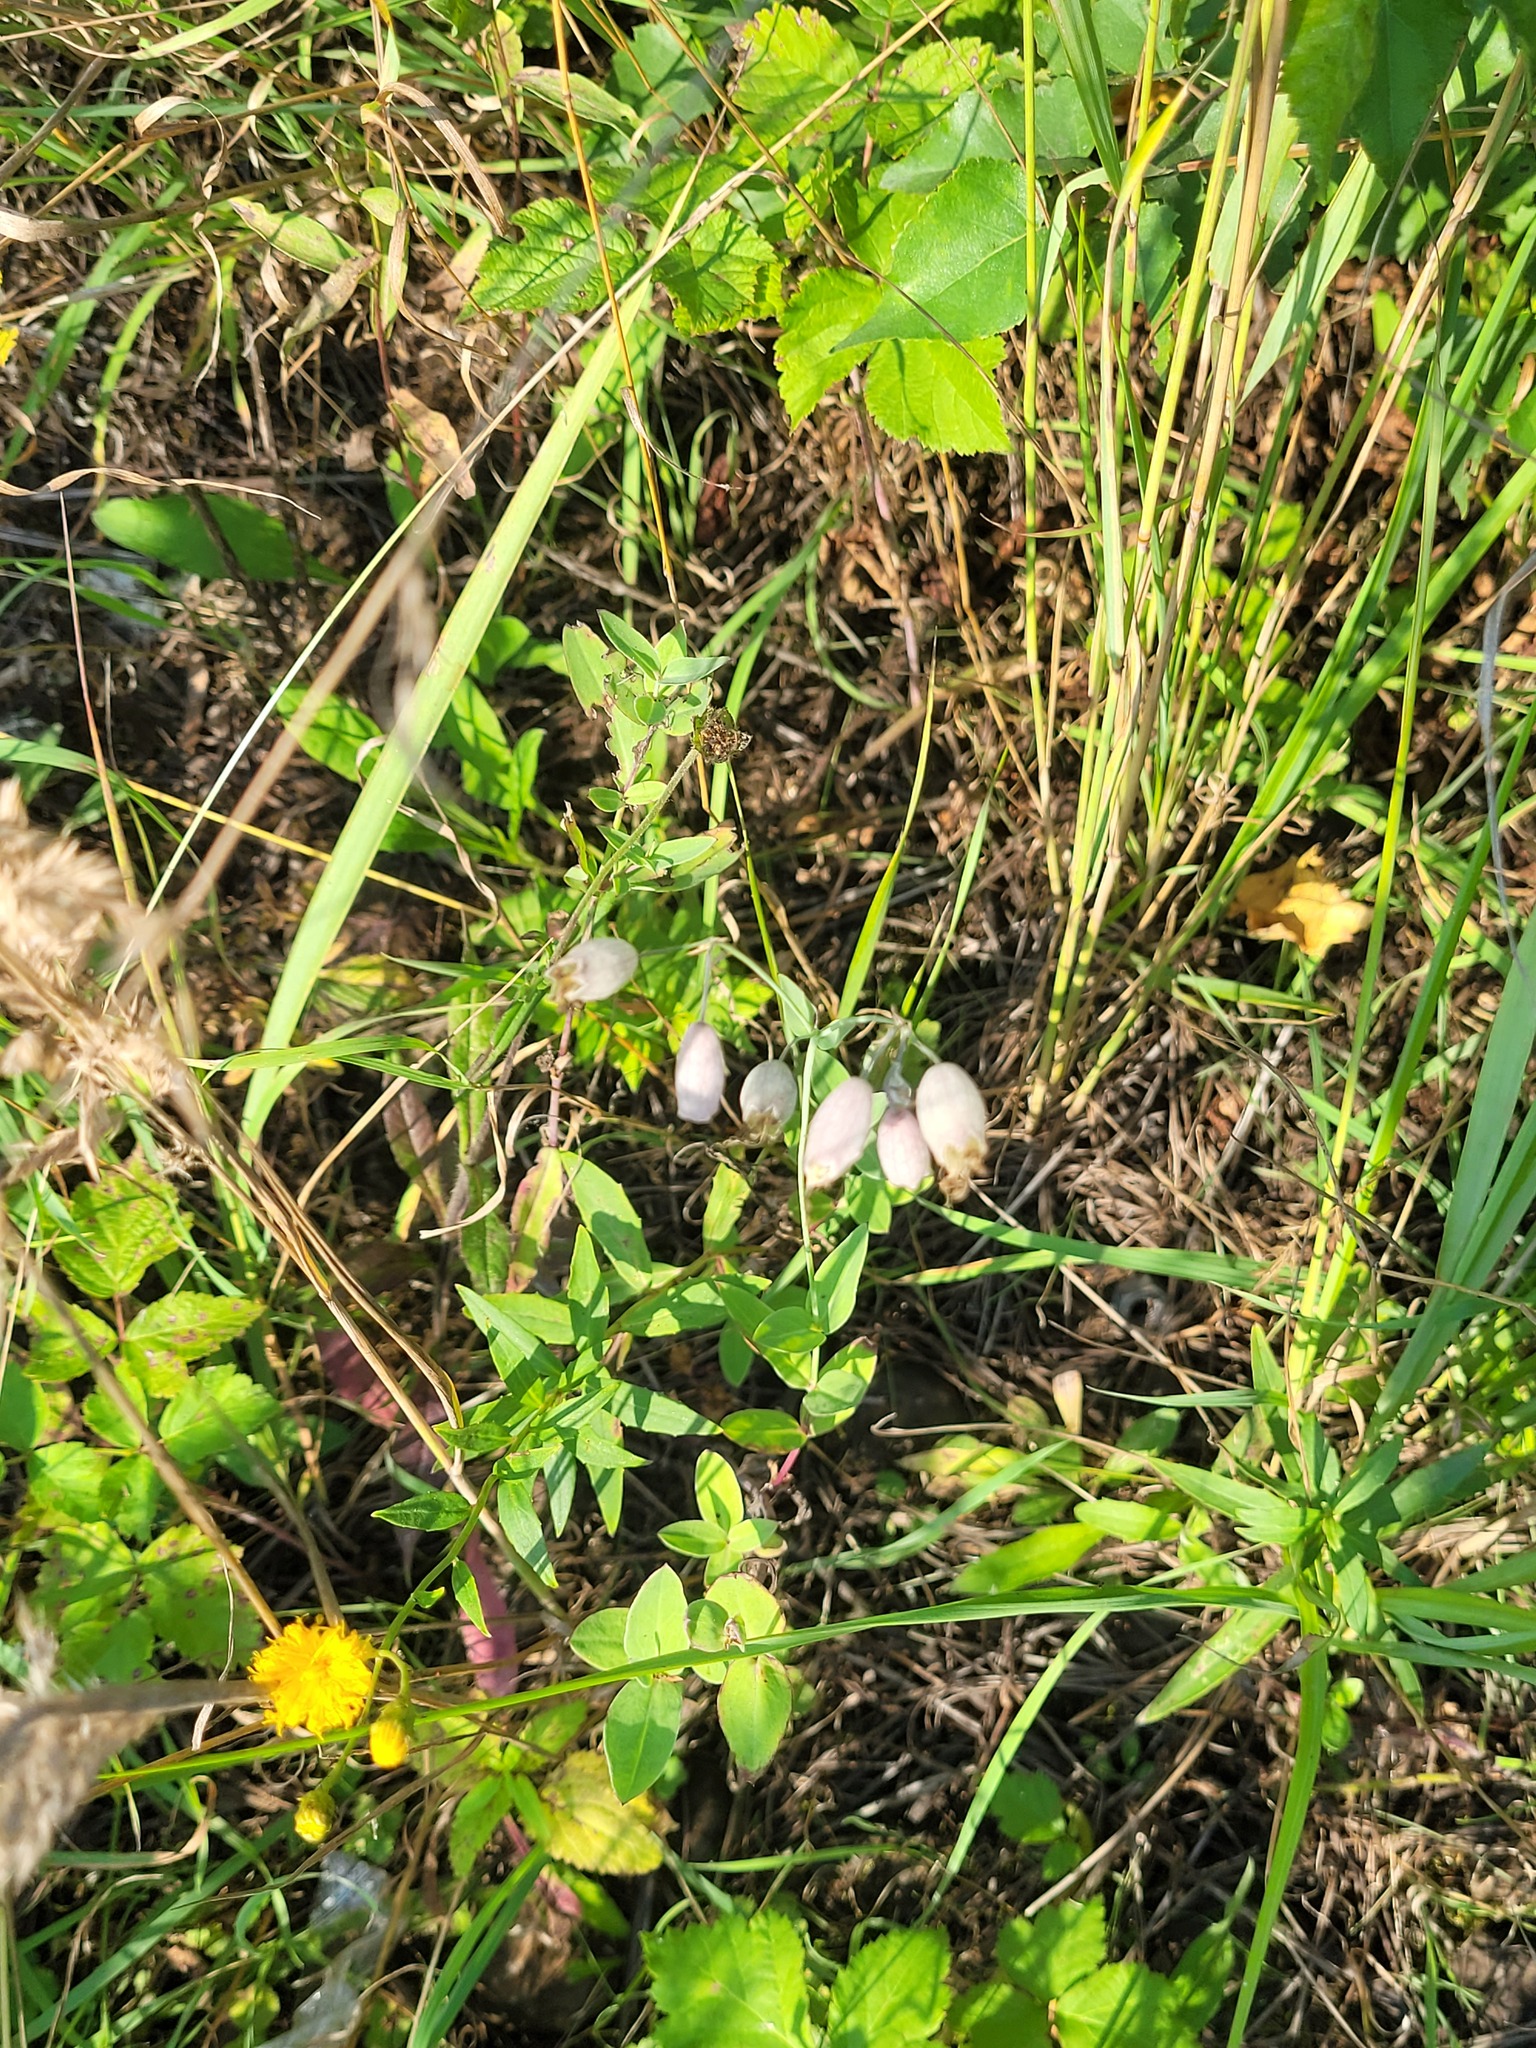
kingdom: Plantae
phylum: Tracheophyta
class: Magnoliopsida
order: Caryophyllales
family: Caryophyllaceae
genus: Silene
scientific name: Silene vulgaris
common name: Bladder campion
